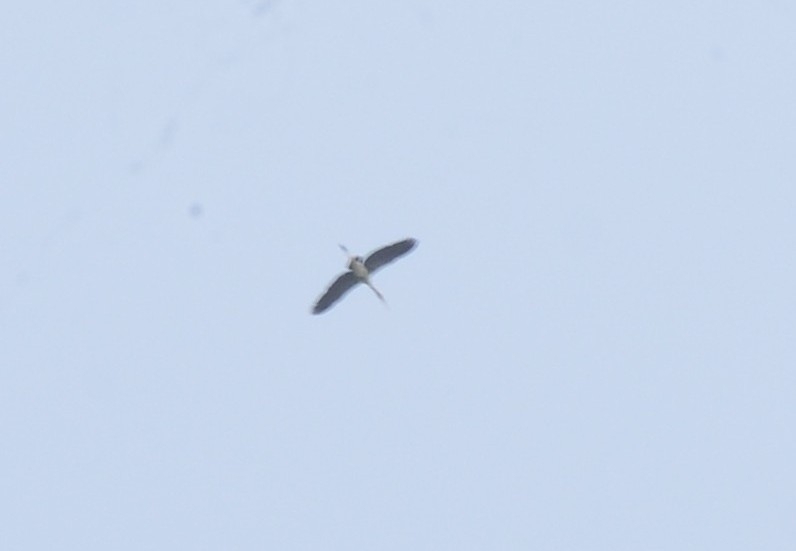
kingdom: Animalia
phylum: Chordata
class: Aves
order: Ciconiiformes
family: Ciconiidae
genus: Mycteria
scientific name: Mycteria leucocephala
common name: Painted stork
